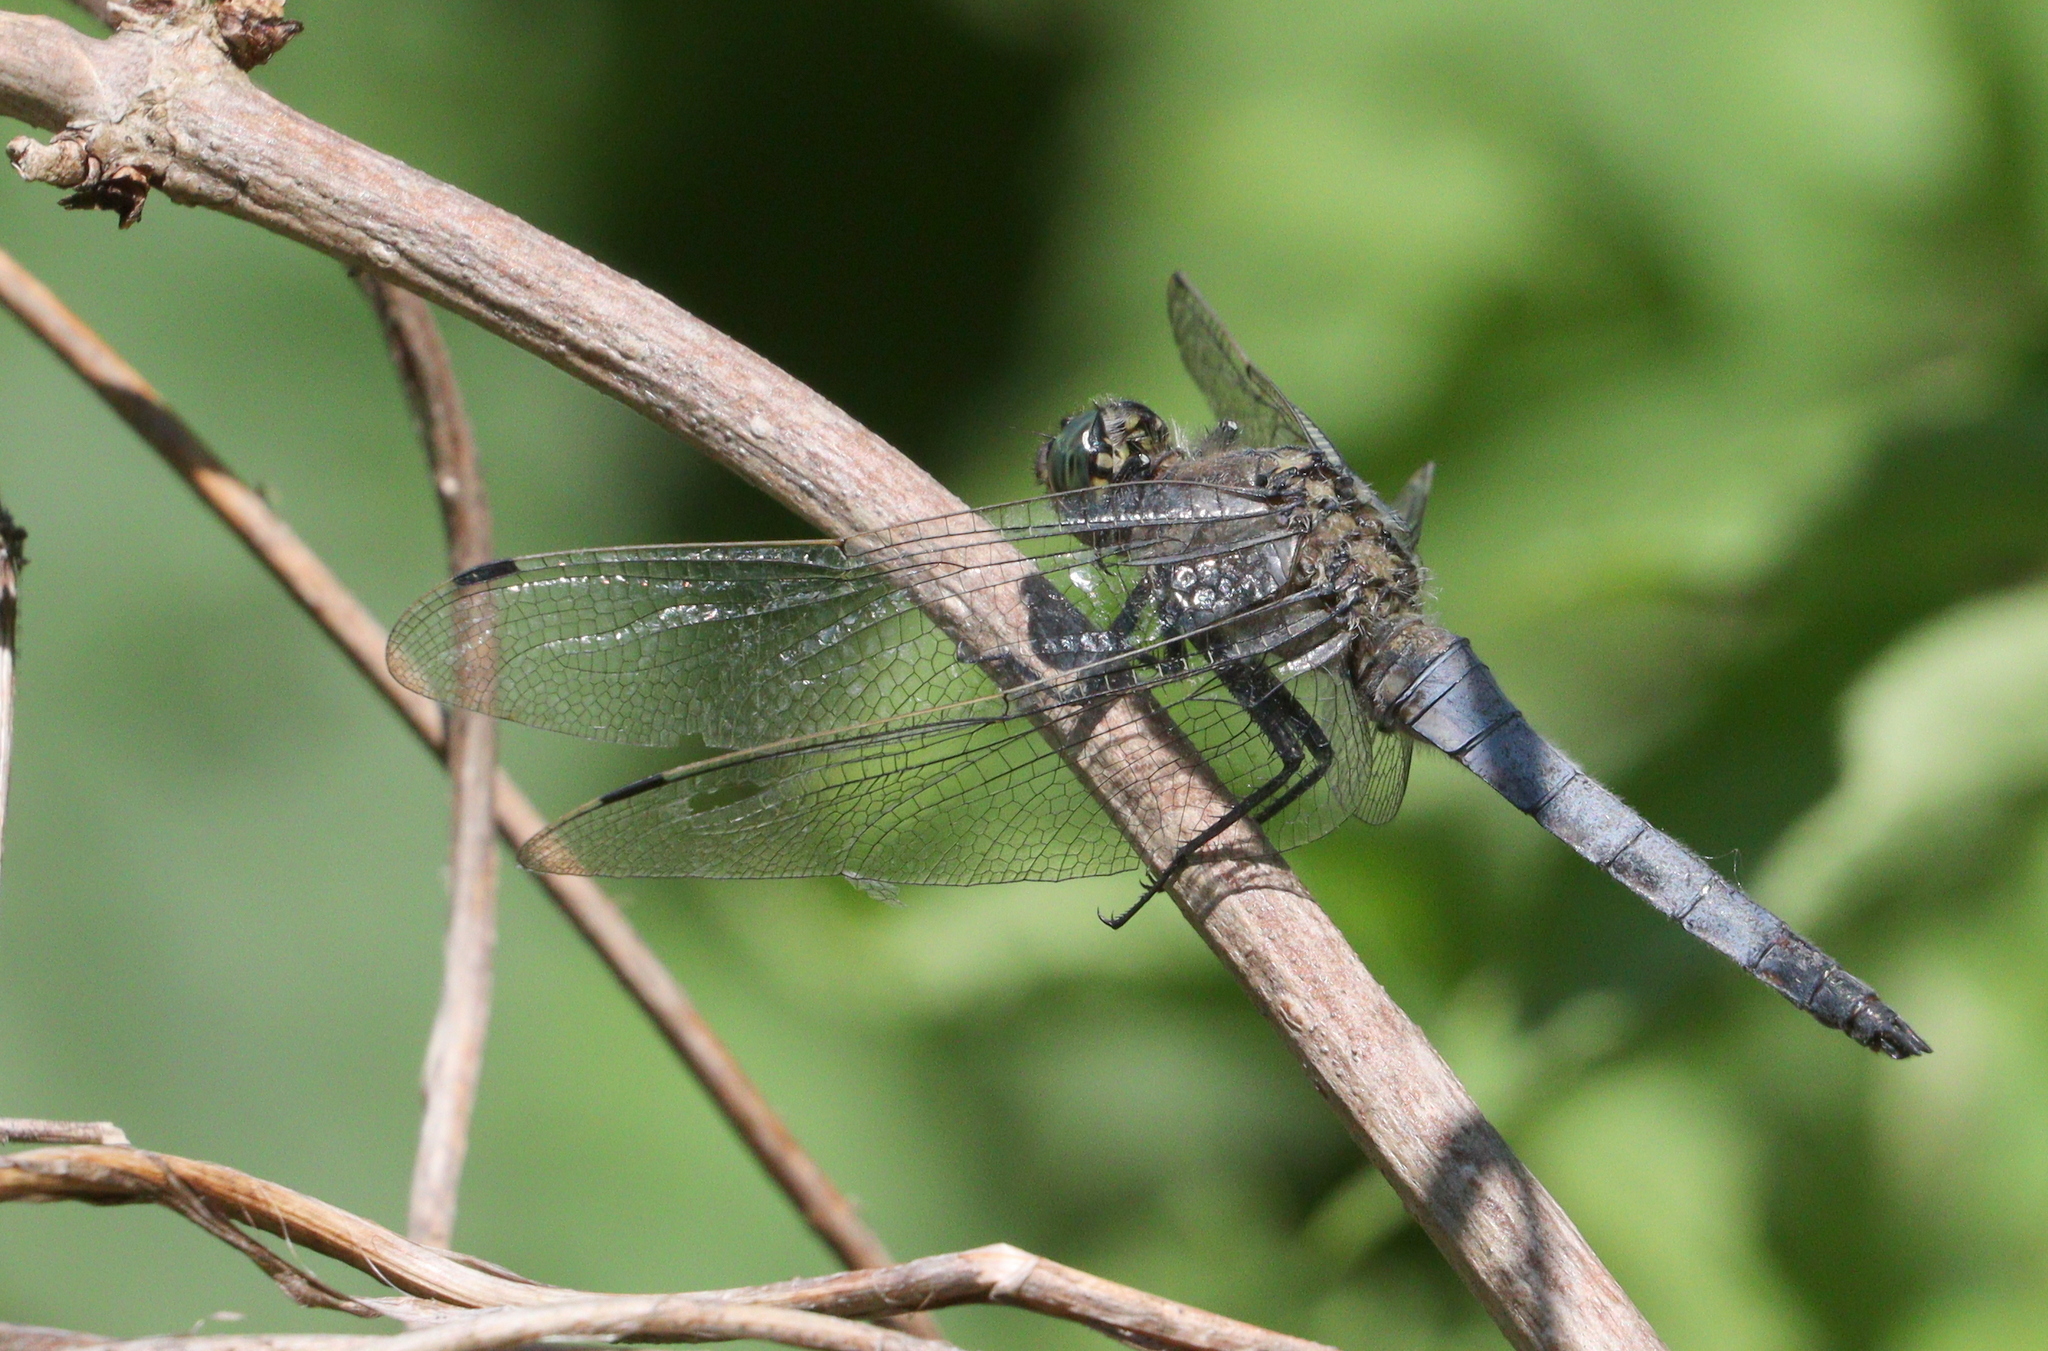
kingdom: Animalia
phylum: Arthropoda
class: Insecta
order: Odonata
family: Libellulidae
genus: Orthetrum
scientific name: Orthetrum cancellatum
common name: Black-tailed skimmer
